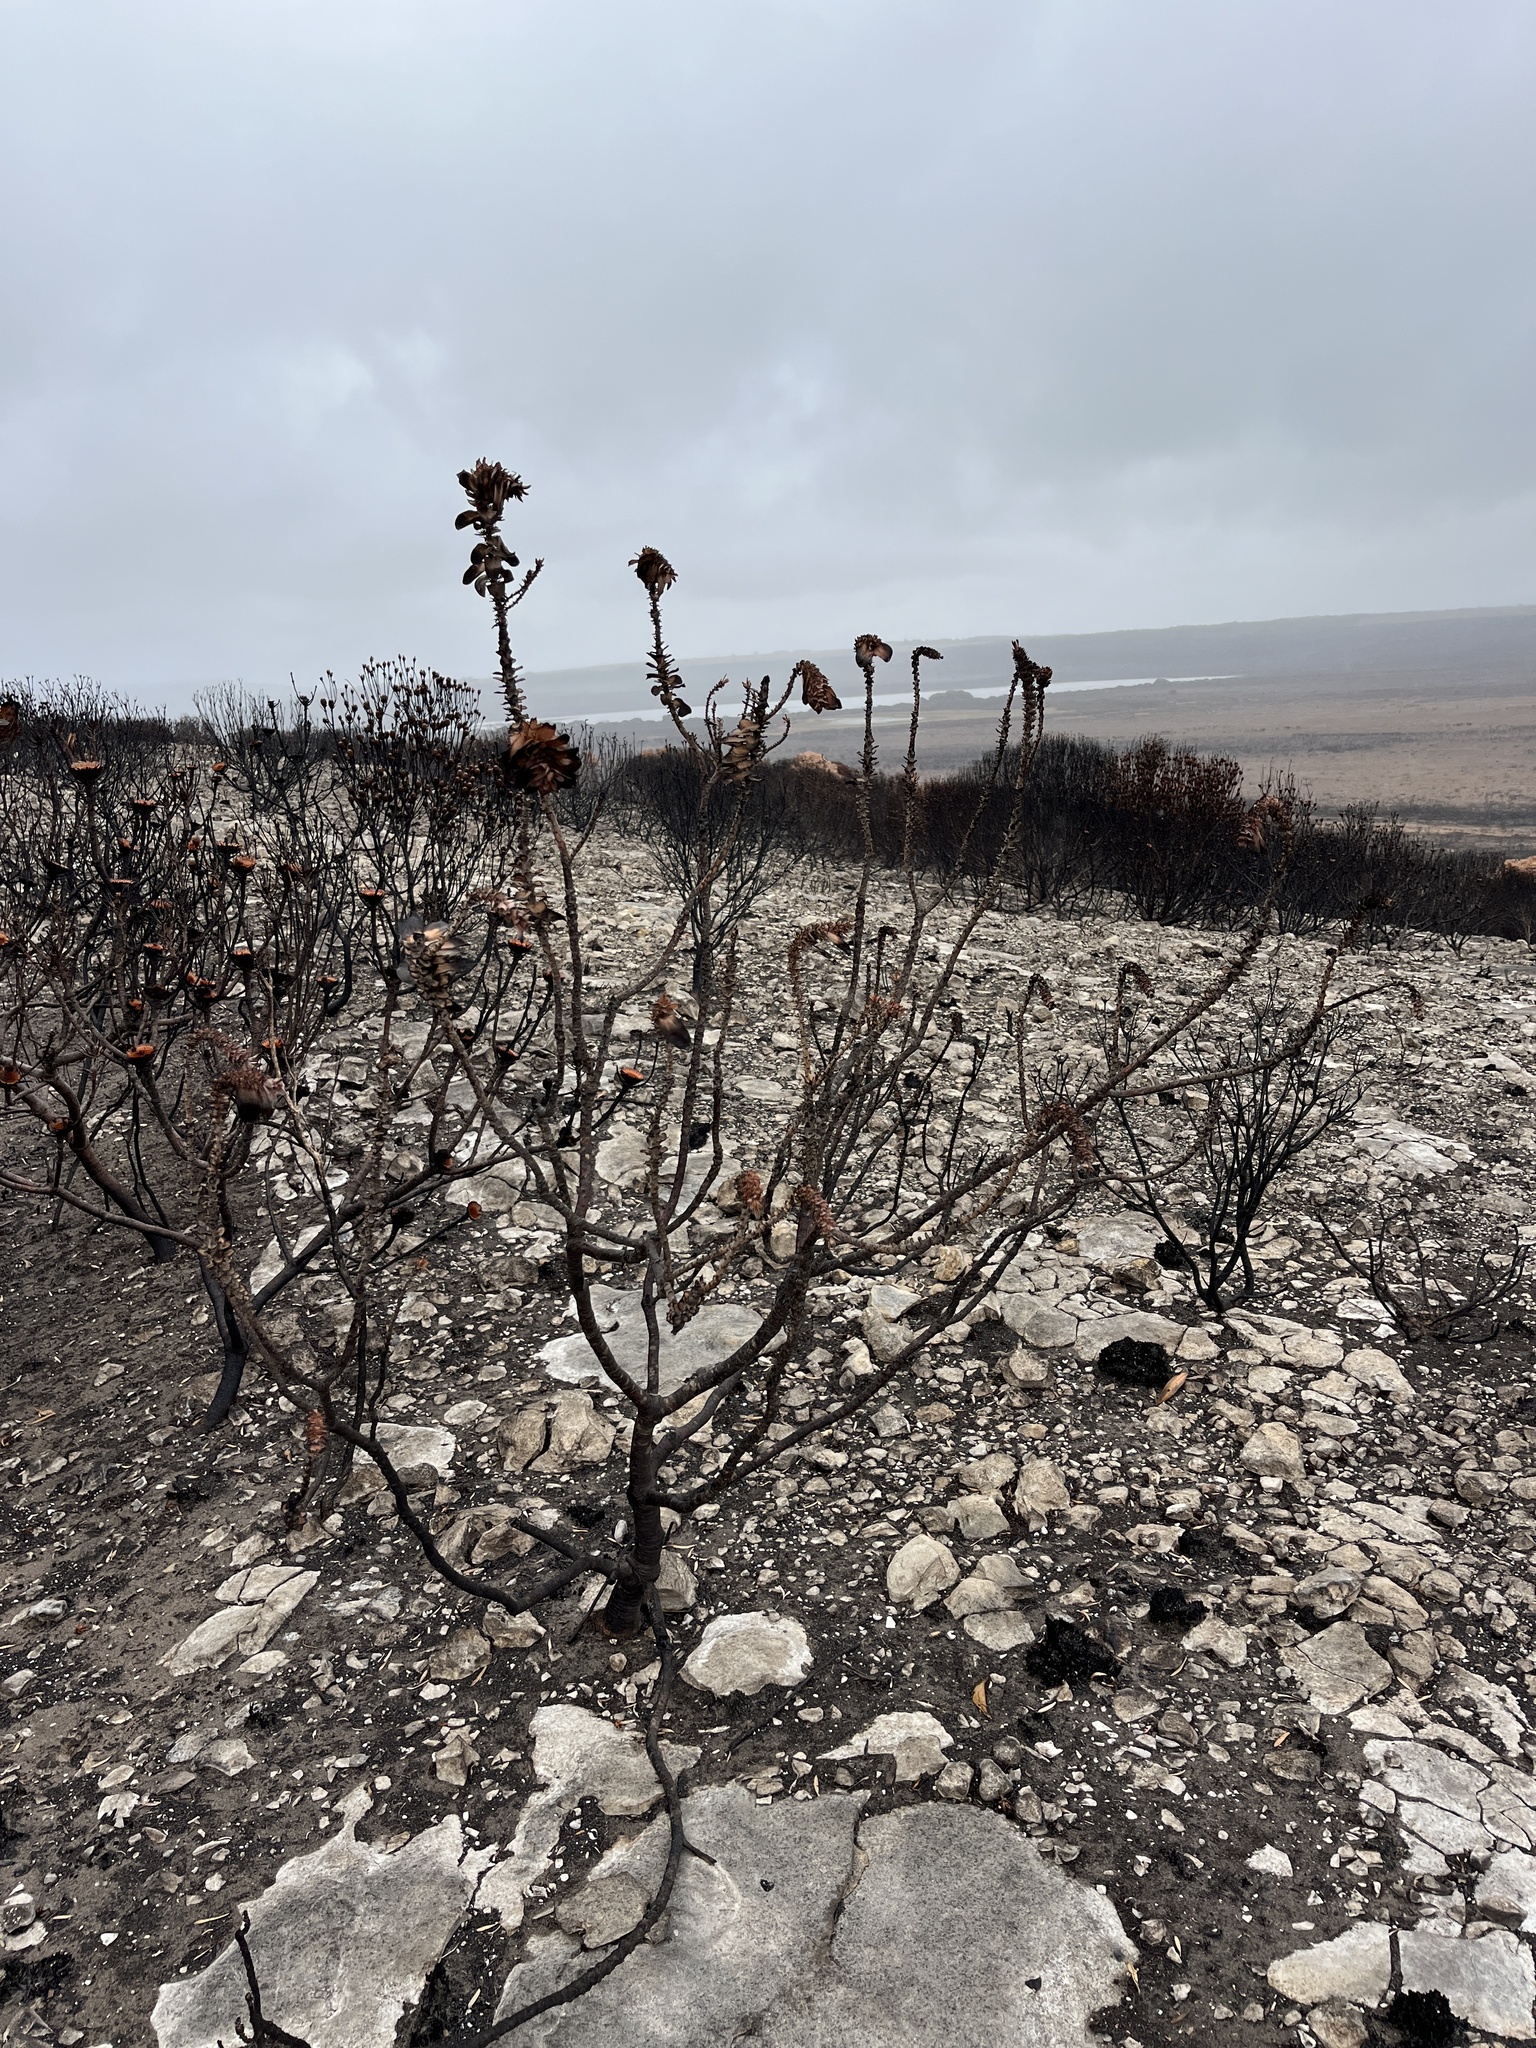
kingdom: Plantae
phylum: Tracheophyta
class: Magnoliopsida
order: Proteales
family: Proteaceae
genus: Mimetes
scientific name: Mimetes saxatilis
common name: Limestone pagoda
